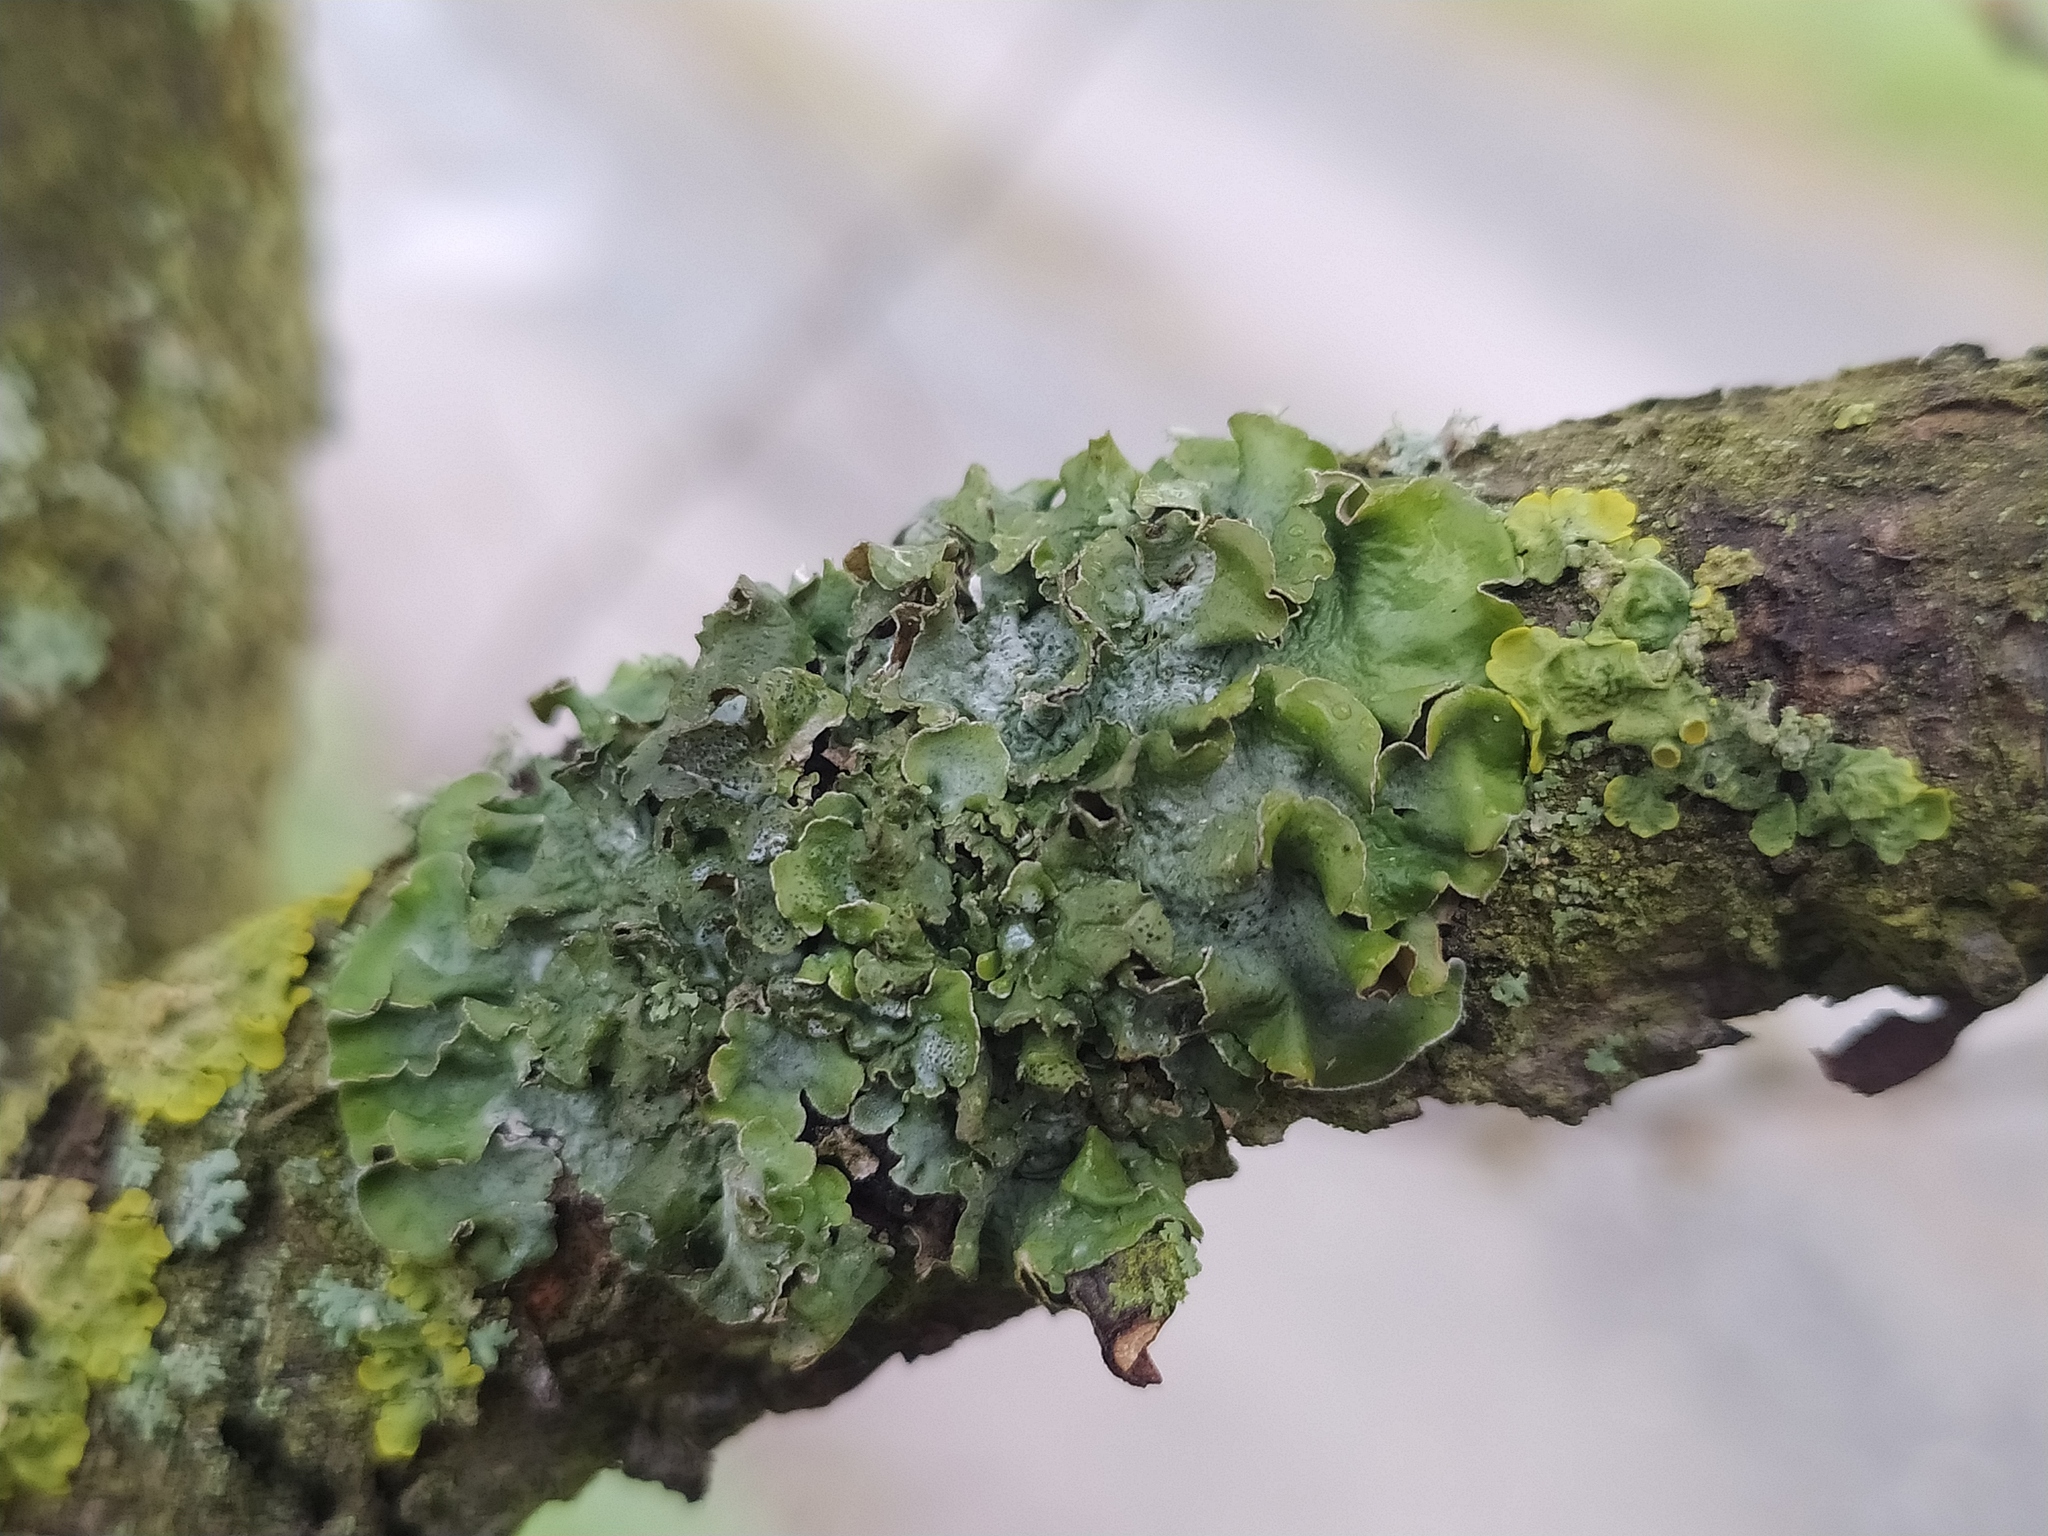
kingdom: Fungi
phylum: Ascomycota
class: Lecanoromycetes
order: Lecanorales
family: Parmeliaceae
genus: Pleurosticta
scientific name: Pleurosticta acetabulum
